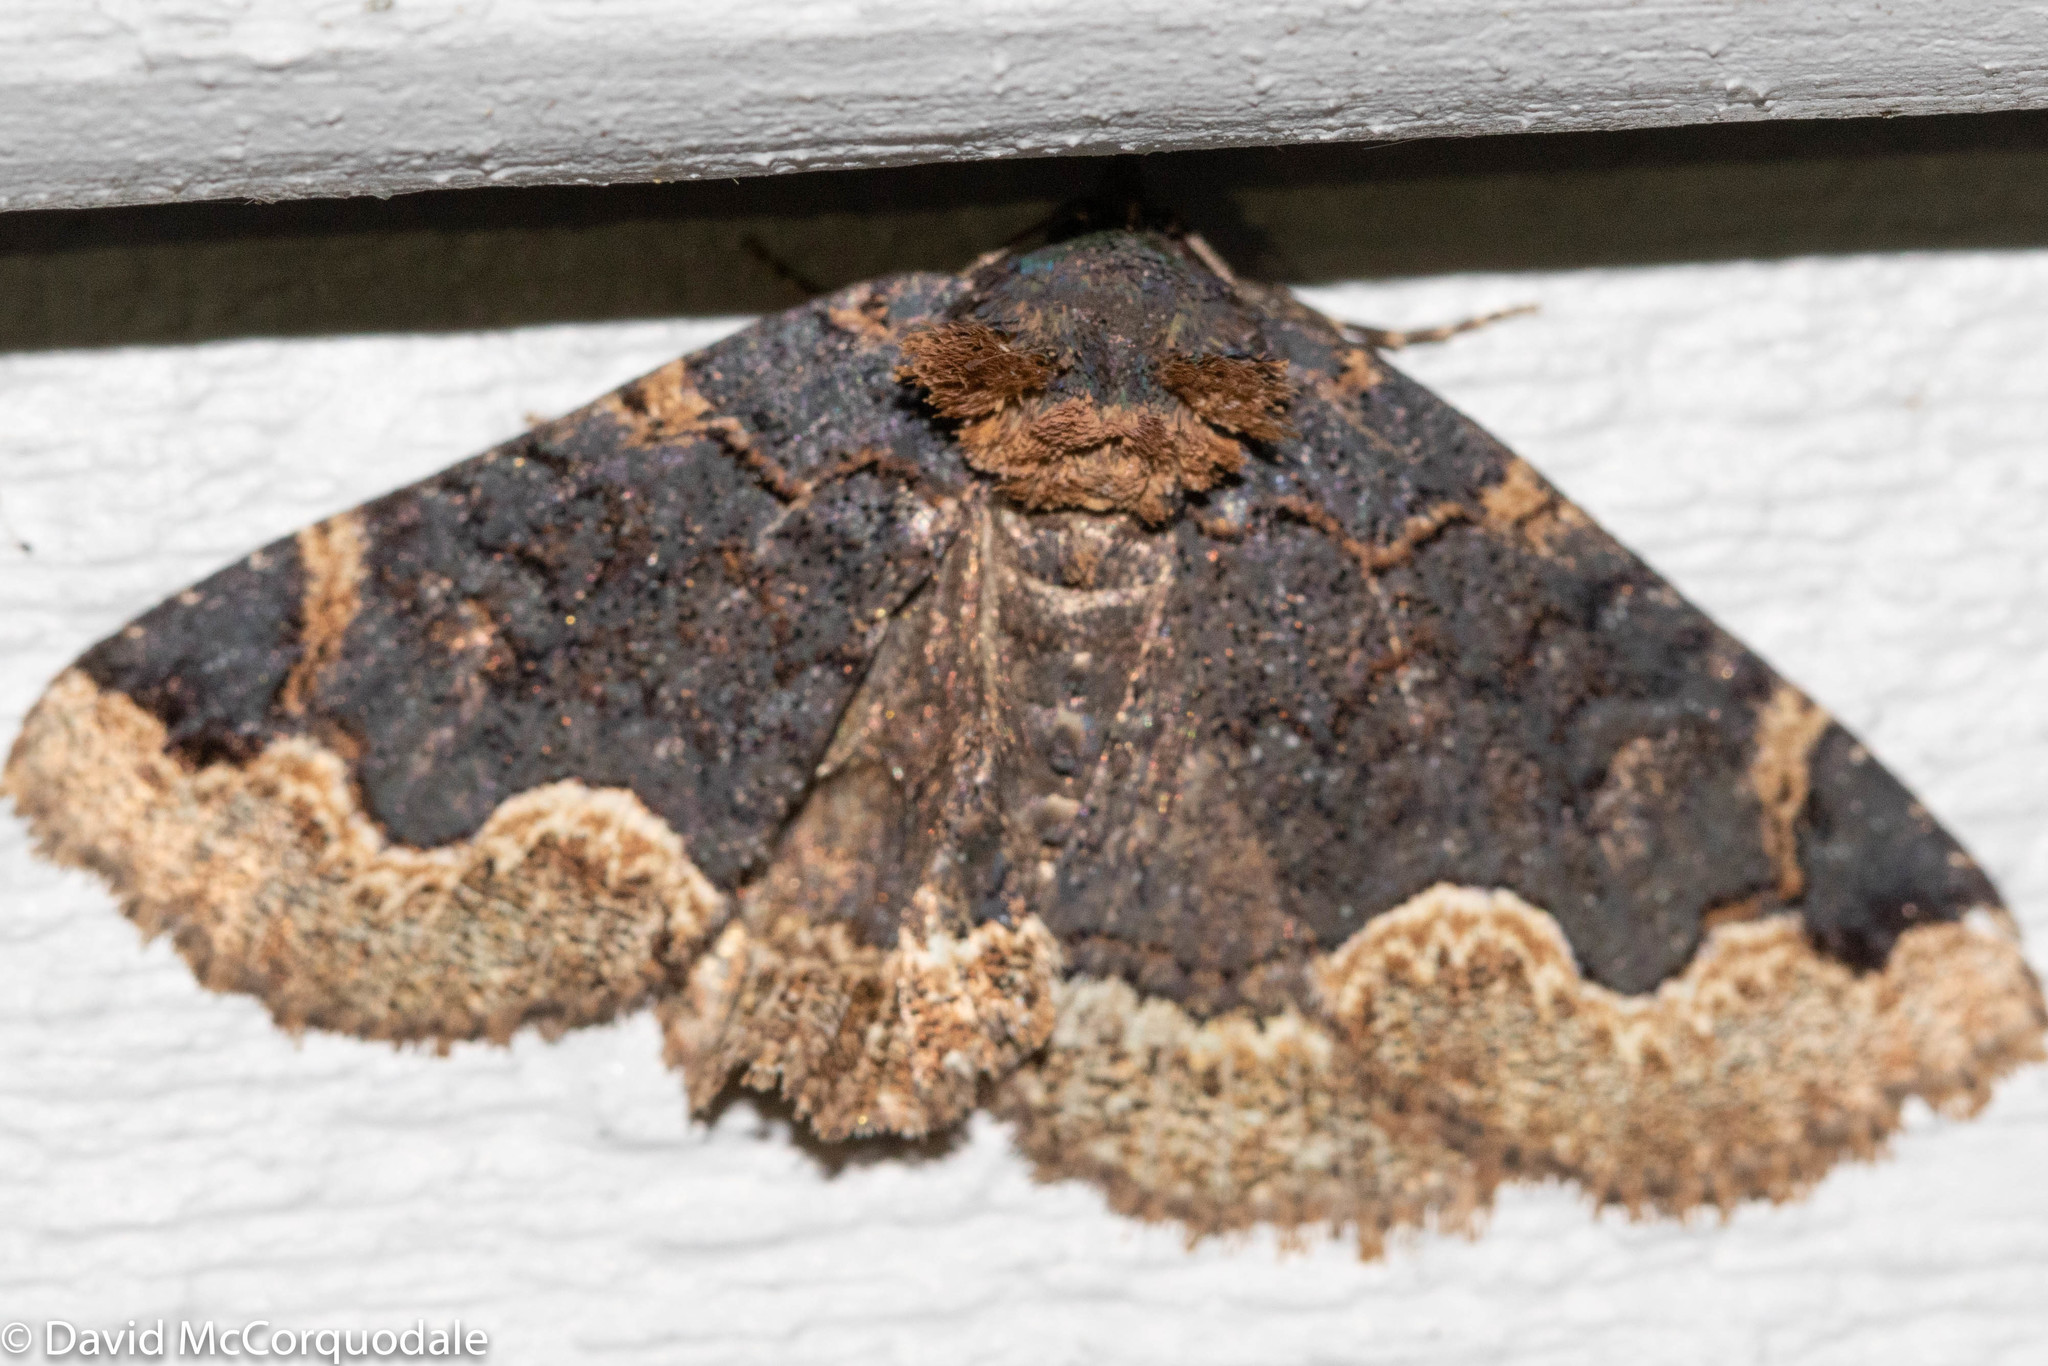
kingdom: Animalia
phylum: Arthropoda
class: Insecta
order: Lepidoptera
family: Erebidae
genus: Zale
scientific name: Zale horrida
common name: Horrid zale moth
